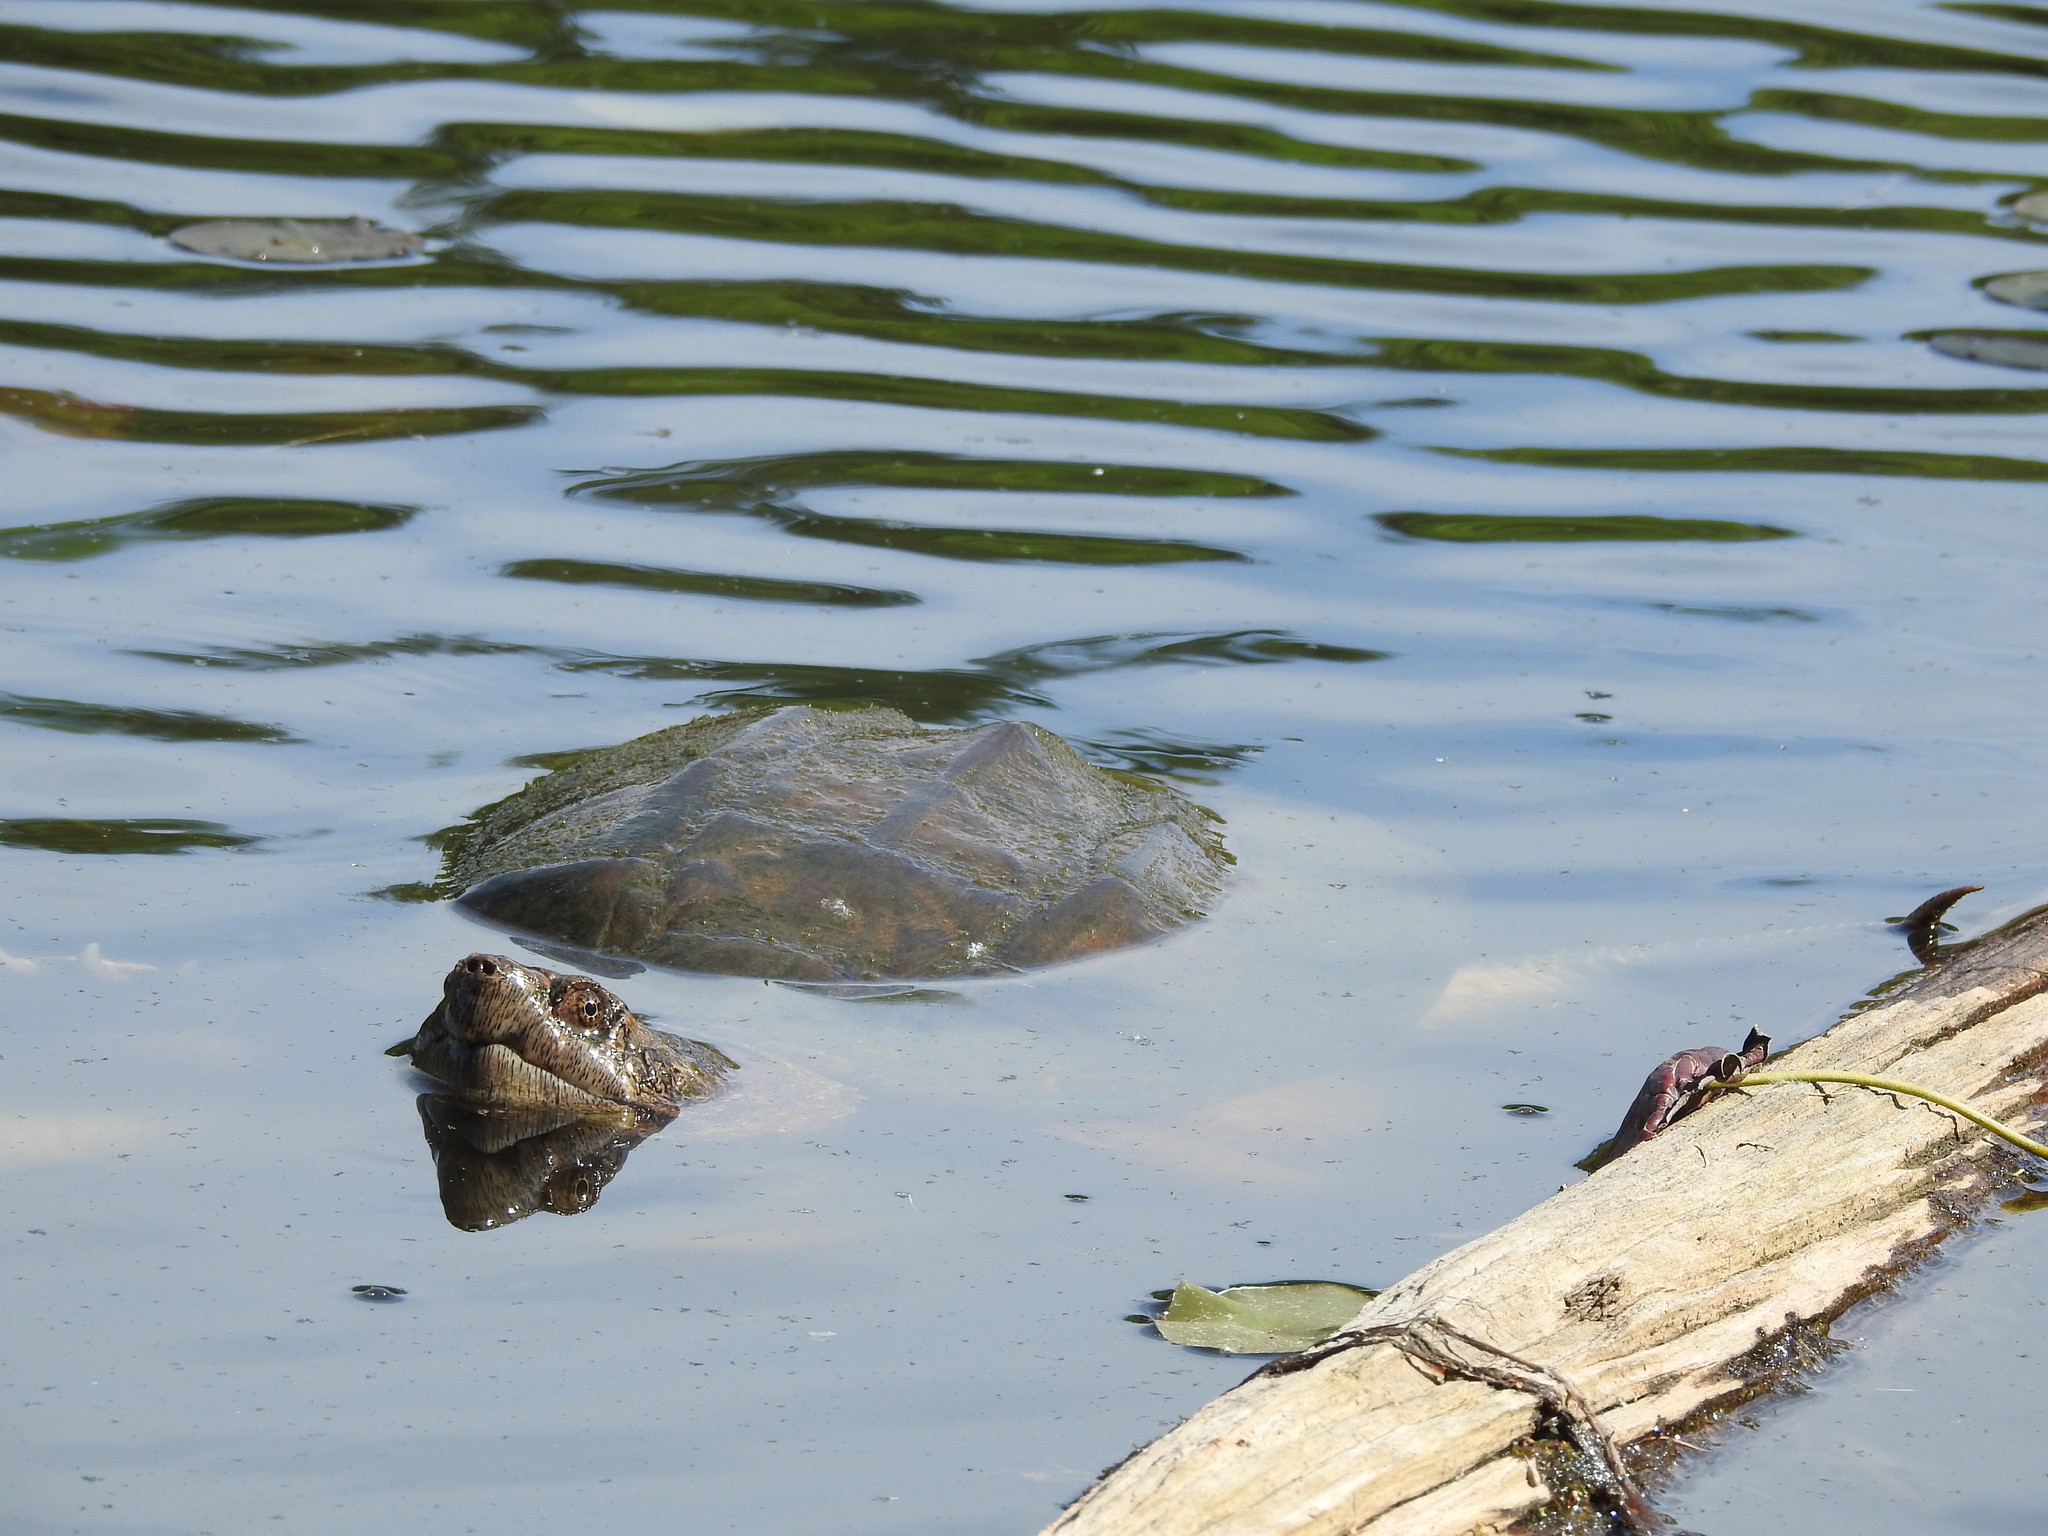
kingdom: Animalia
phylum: Chordata
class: Testudines
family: Chelydridae
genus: Chelydra
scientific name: Chelydra serpentina
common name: Common snapping turtle
